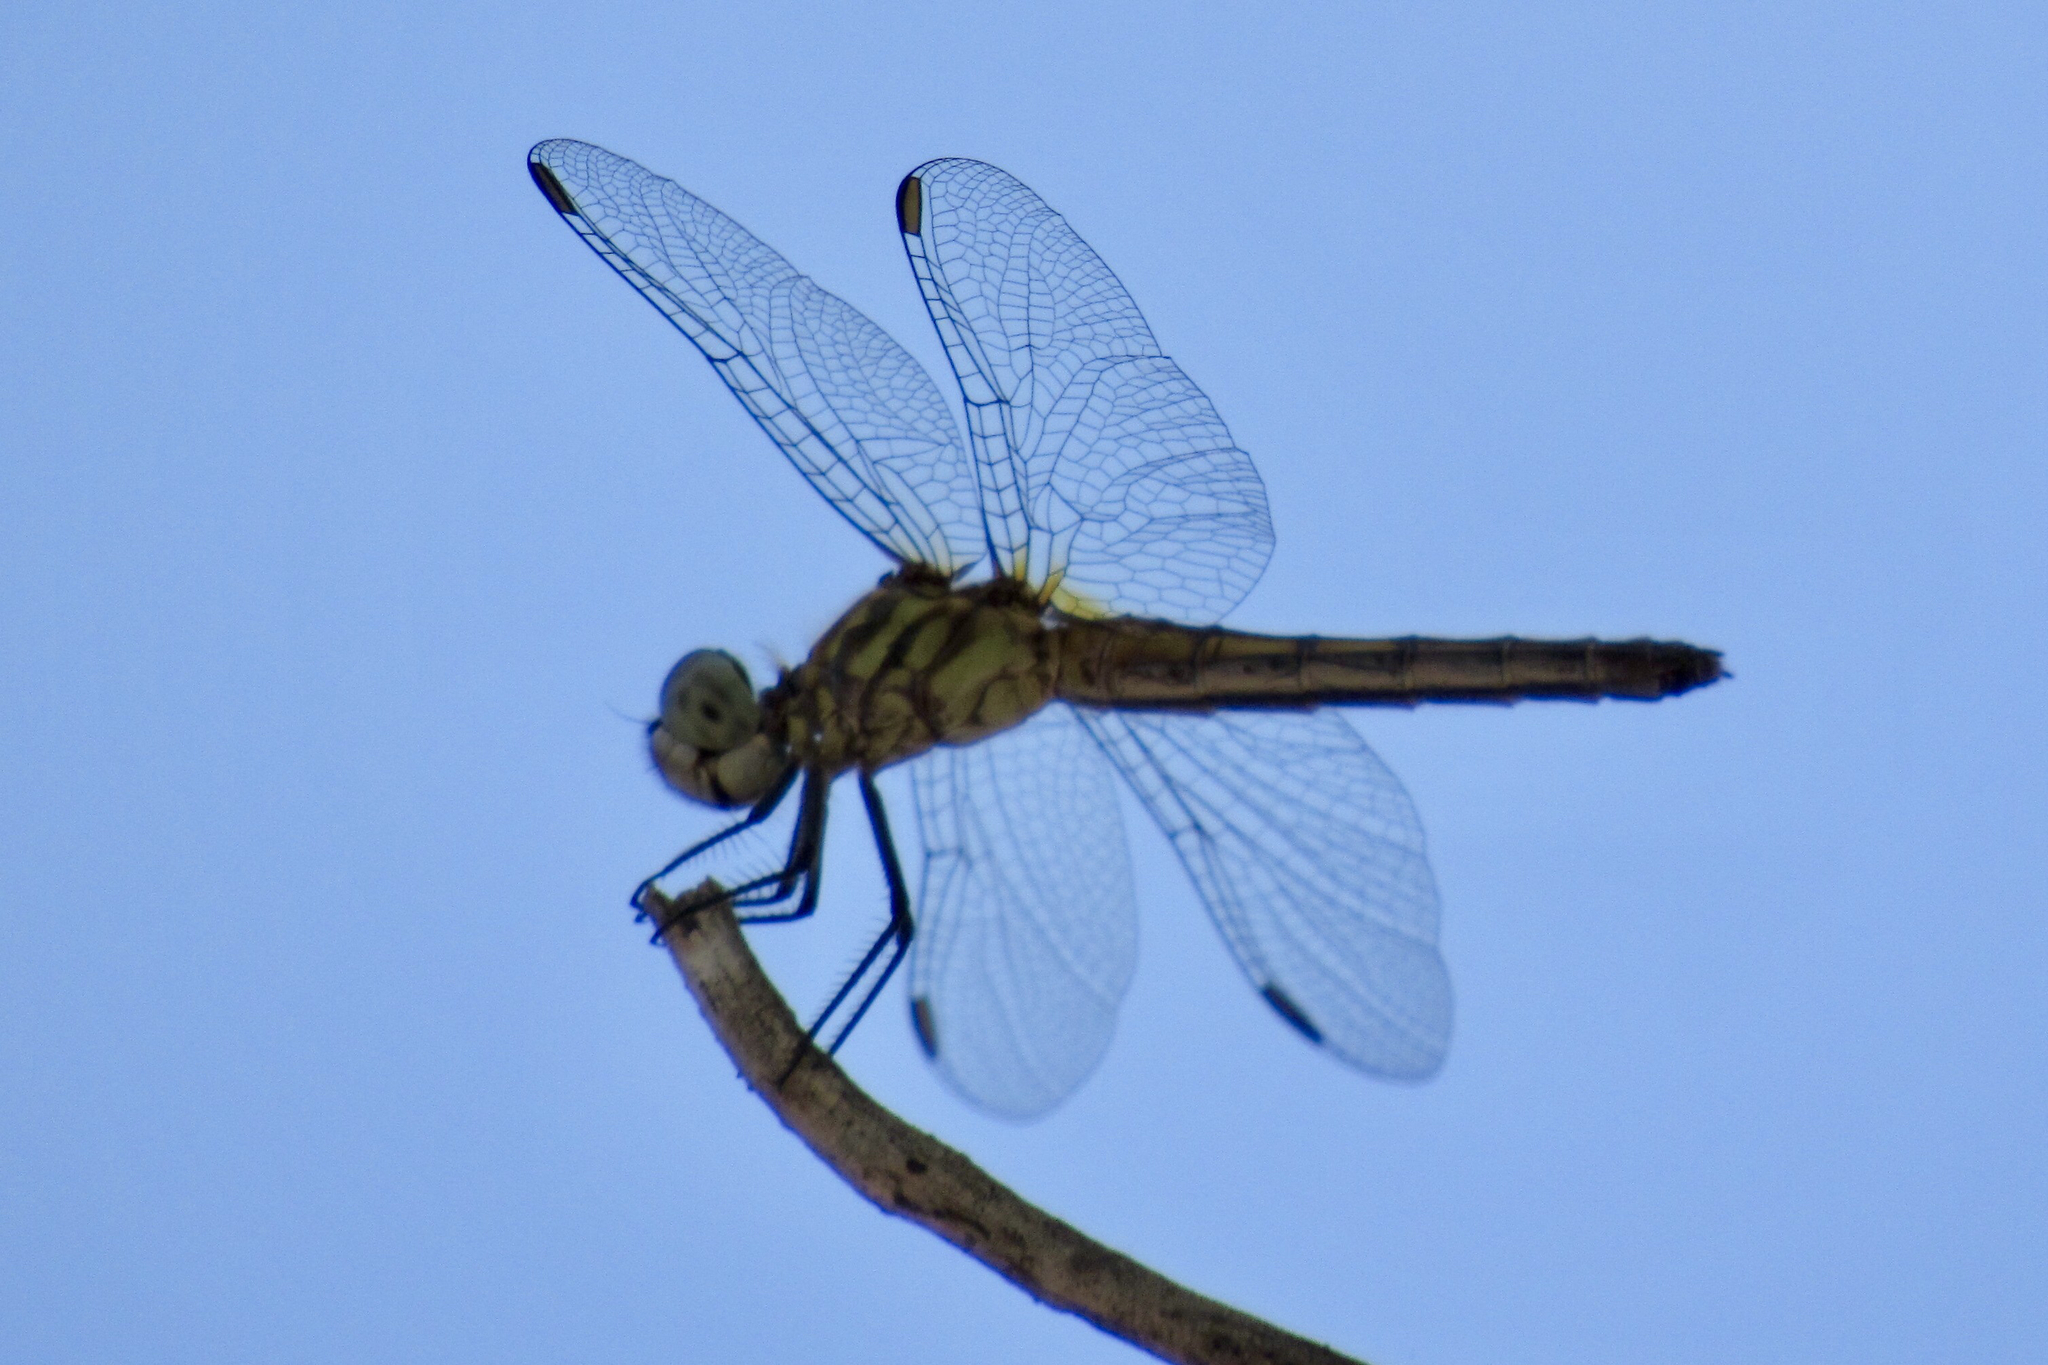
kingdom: Animalia
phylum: Arthropoda
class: Insecta
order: Odonata
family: Libellulidae
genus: Pachydiplax
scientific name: Pachydiplax longipennis
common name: Blue dasher
